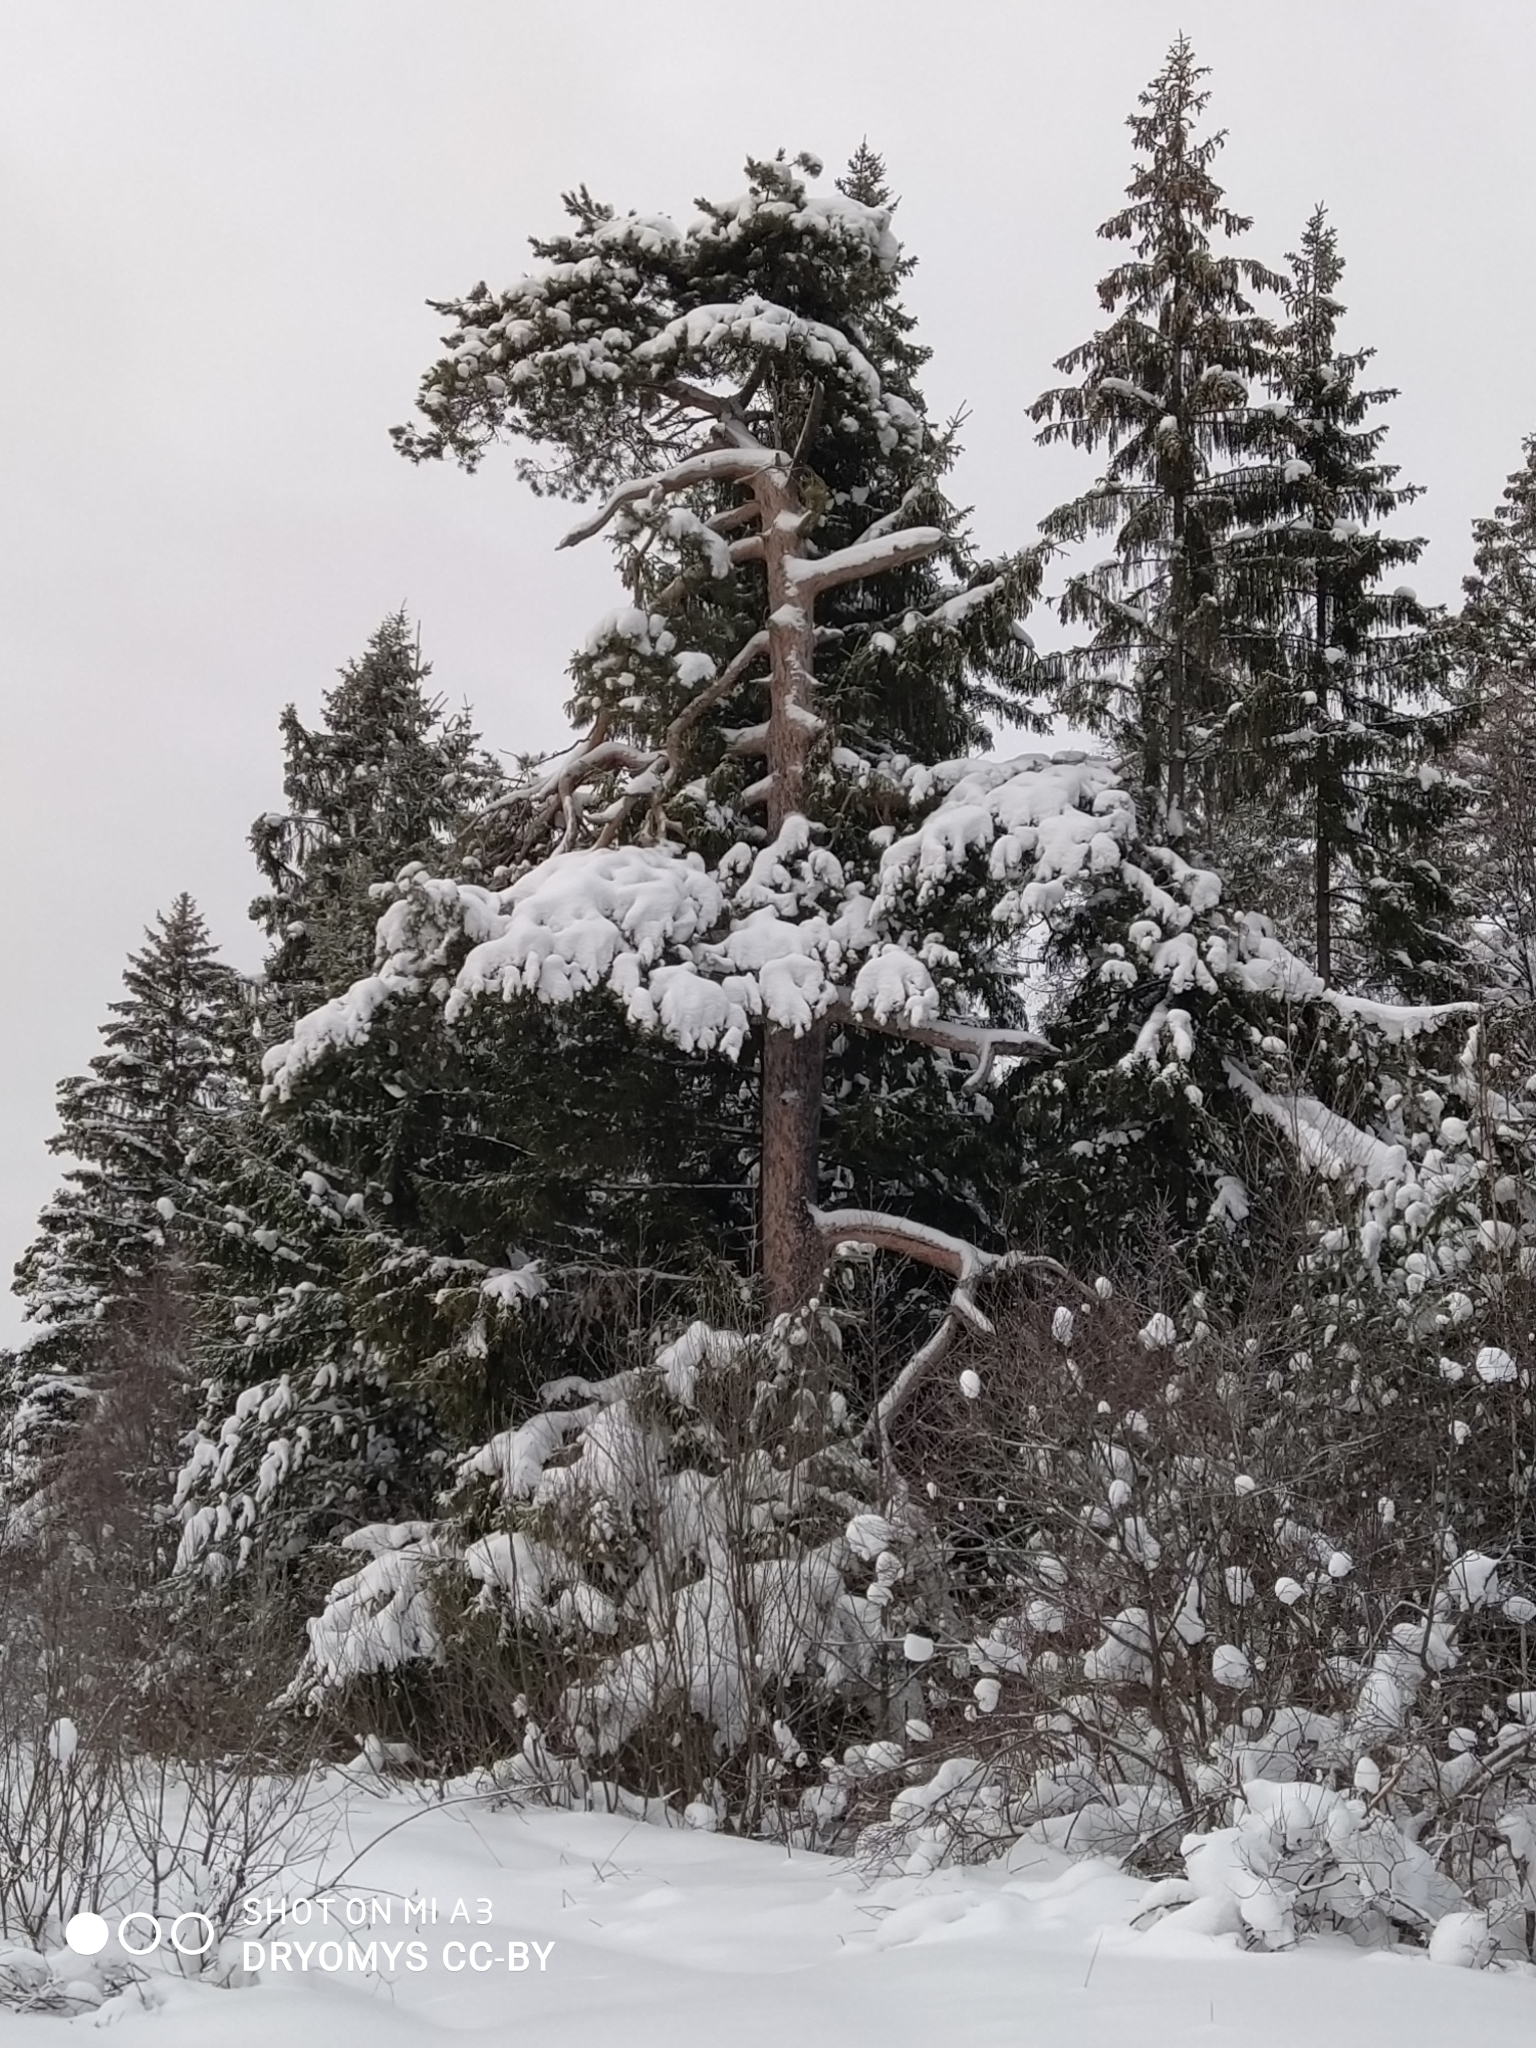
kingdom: Plantae
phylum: Tracheophyta
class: Pinopsida
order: Pinales
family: Pinaceae
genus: Pinus
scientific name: Pinus sylvestris
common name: Scots pine
